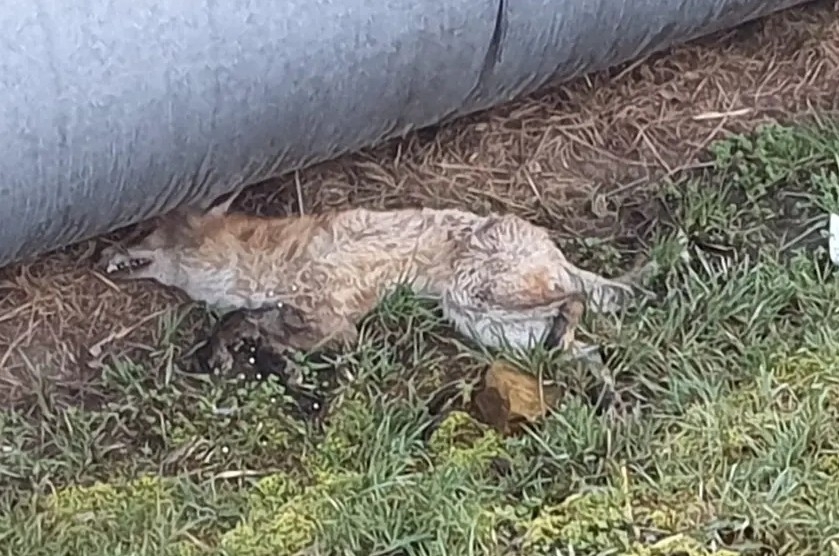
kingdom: Animalia
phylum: Chordata
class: Mammalia
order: Carnivora
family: Canidae
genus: Vulpes
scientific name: Vulpes vulpes
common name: Red fox
